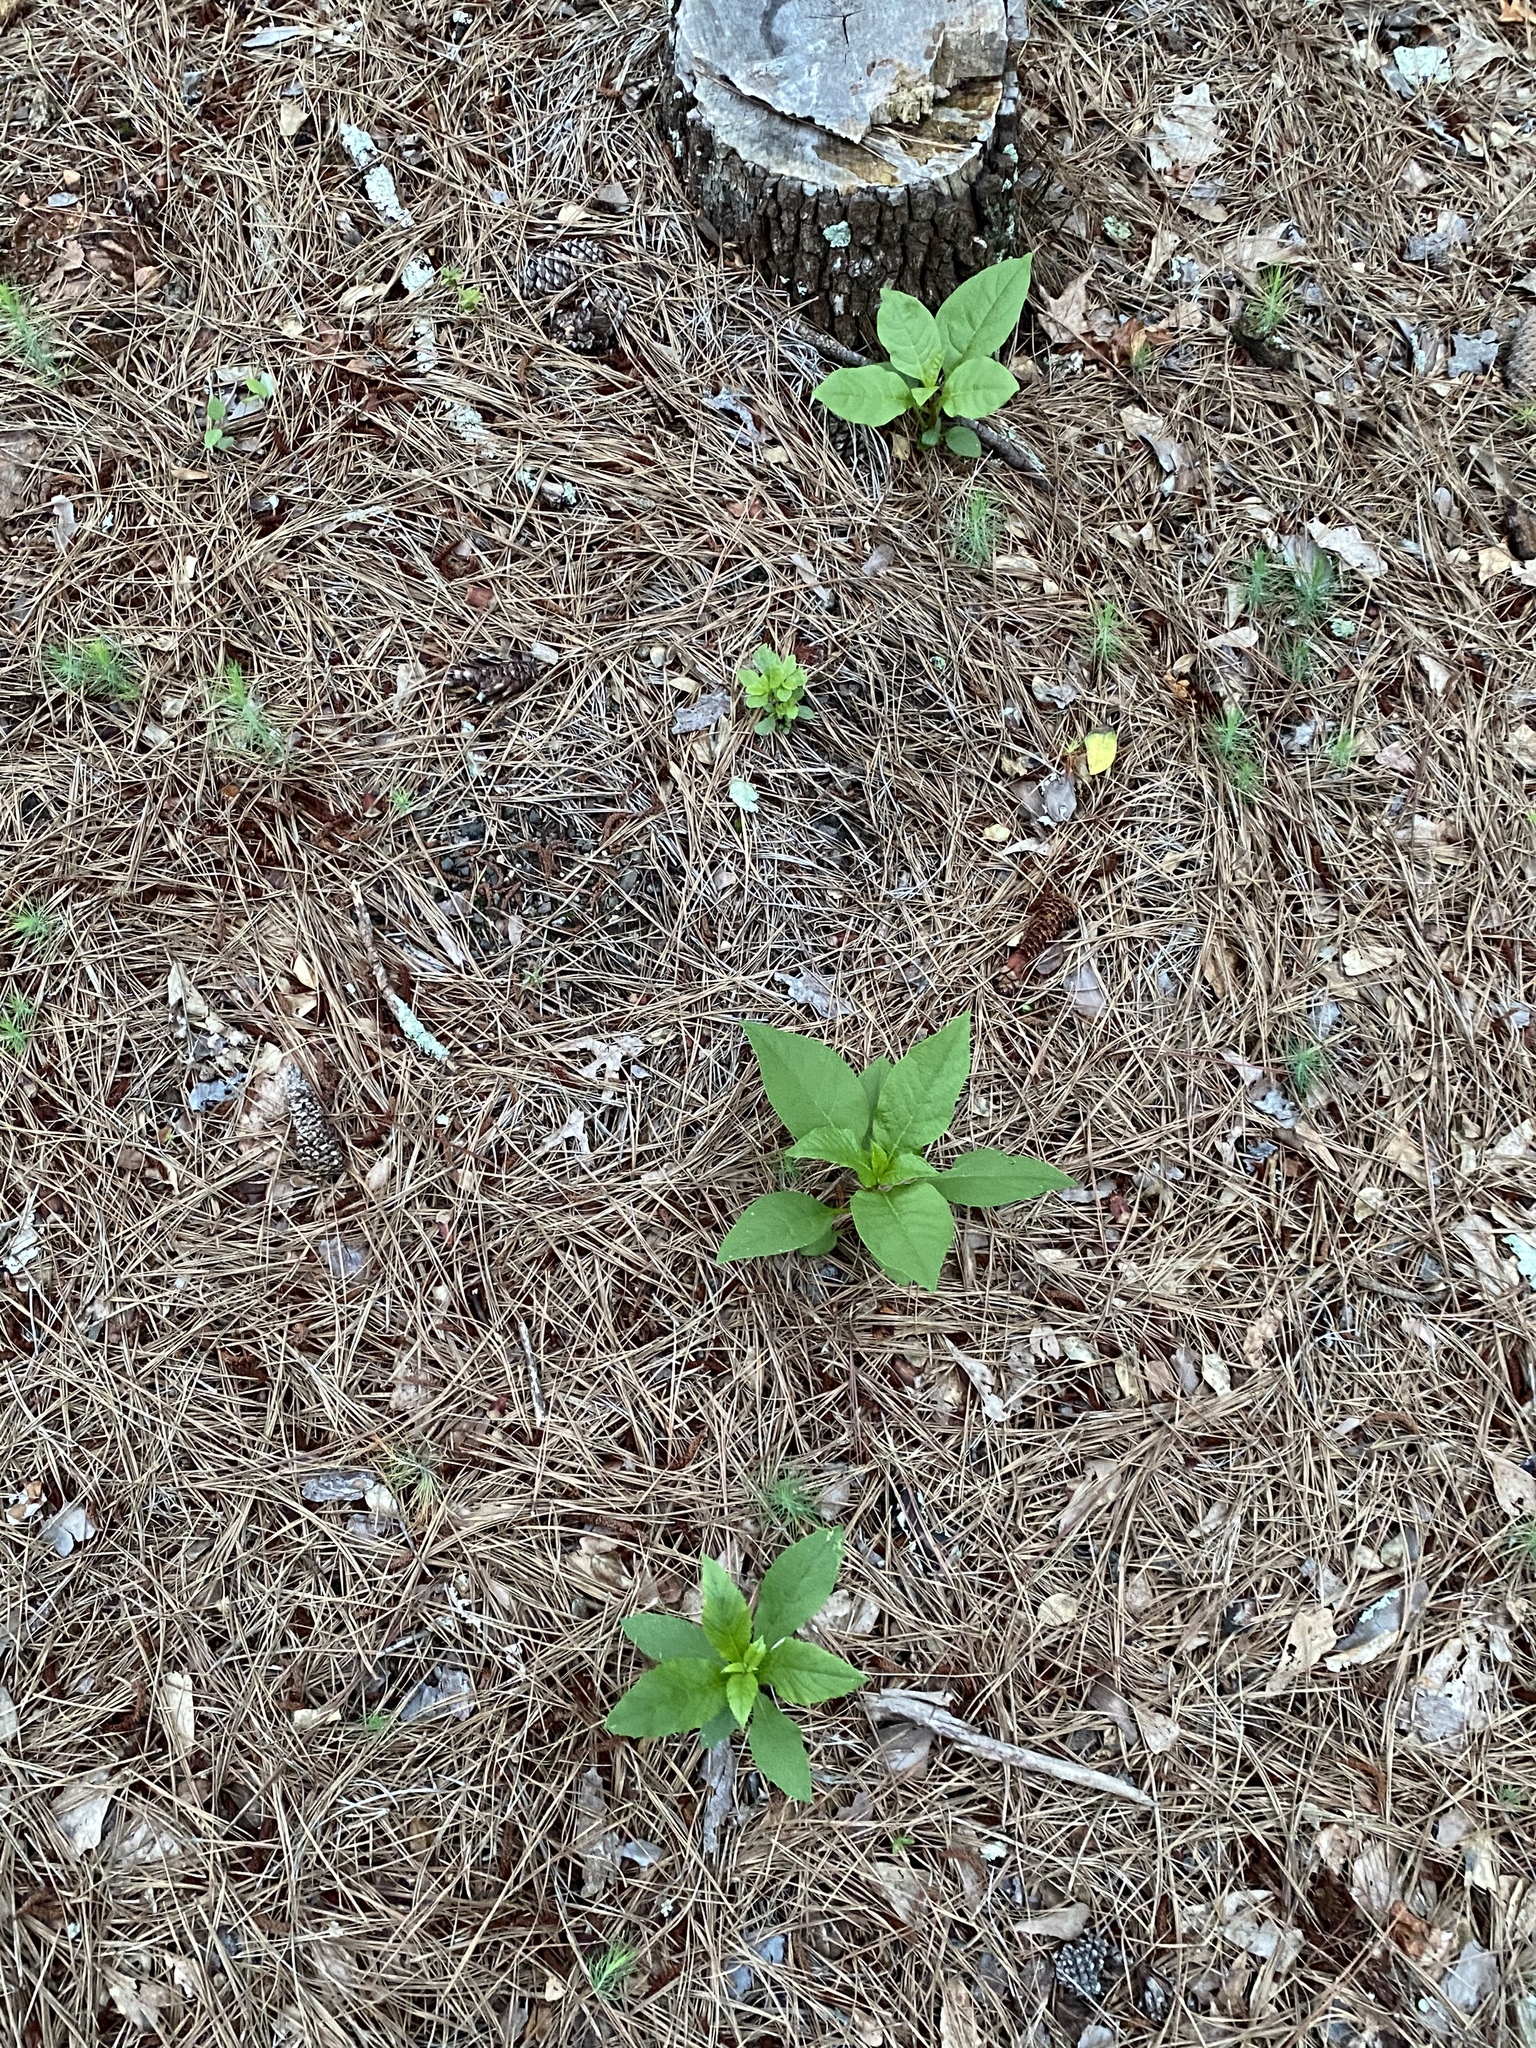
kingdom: Plantae
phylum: Tracheophyta
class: Magnoliopsida
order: Caryophyllales
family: Phytolaccaceae
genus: Phytolacca
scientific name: Phytolacca americana
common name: American pokeweed
